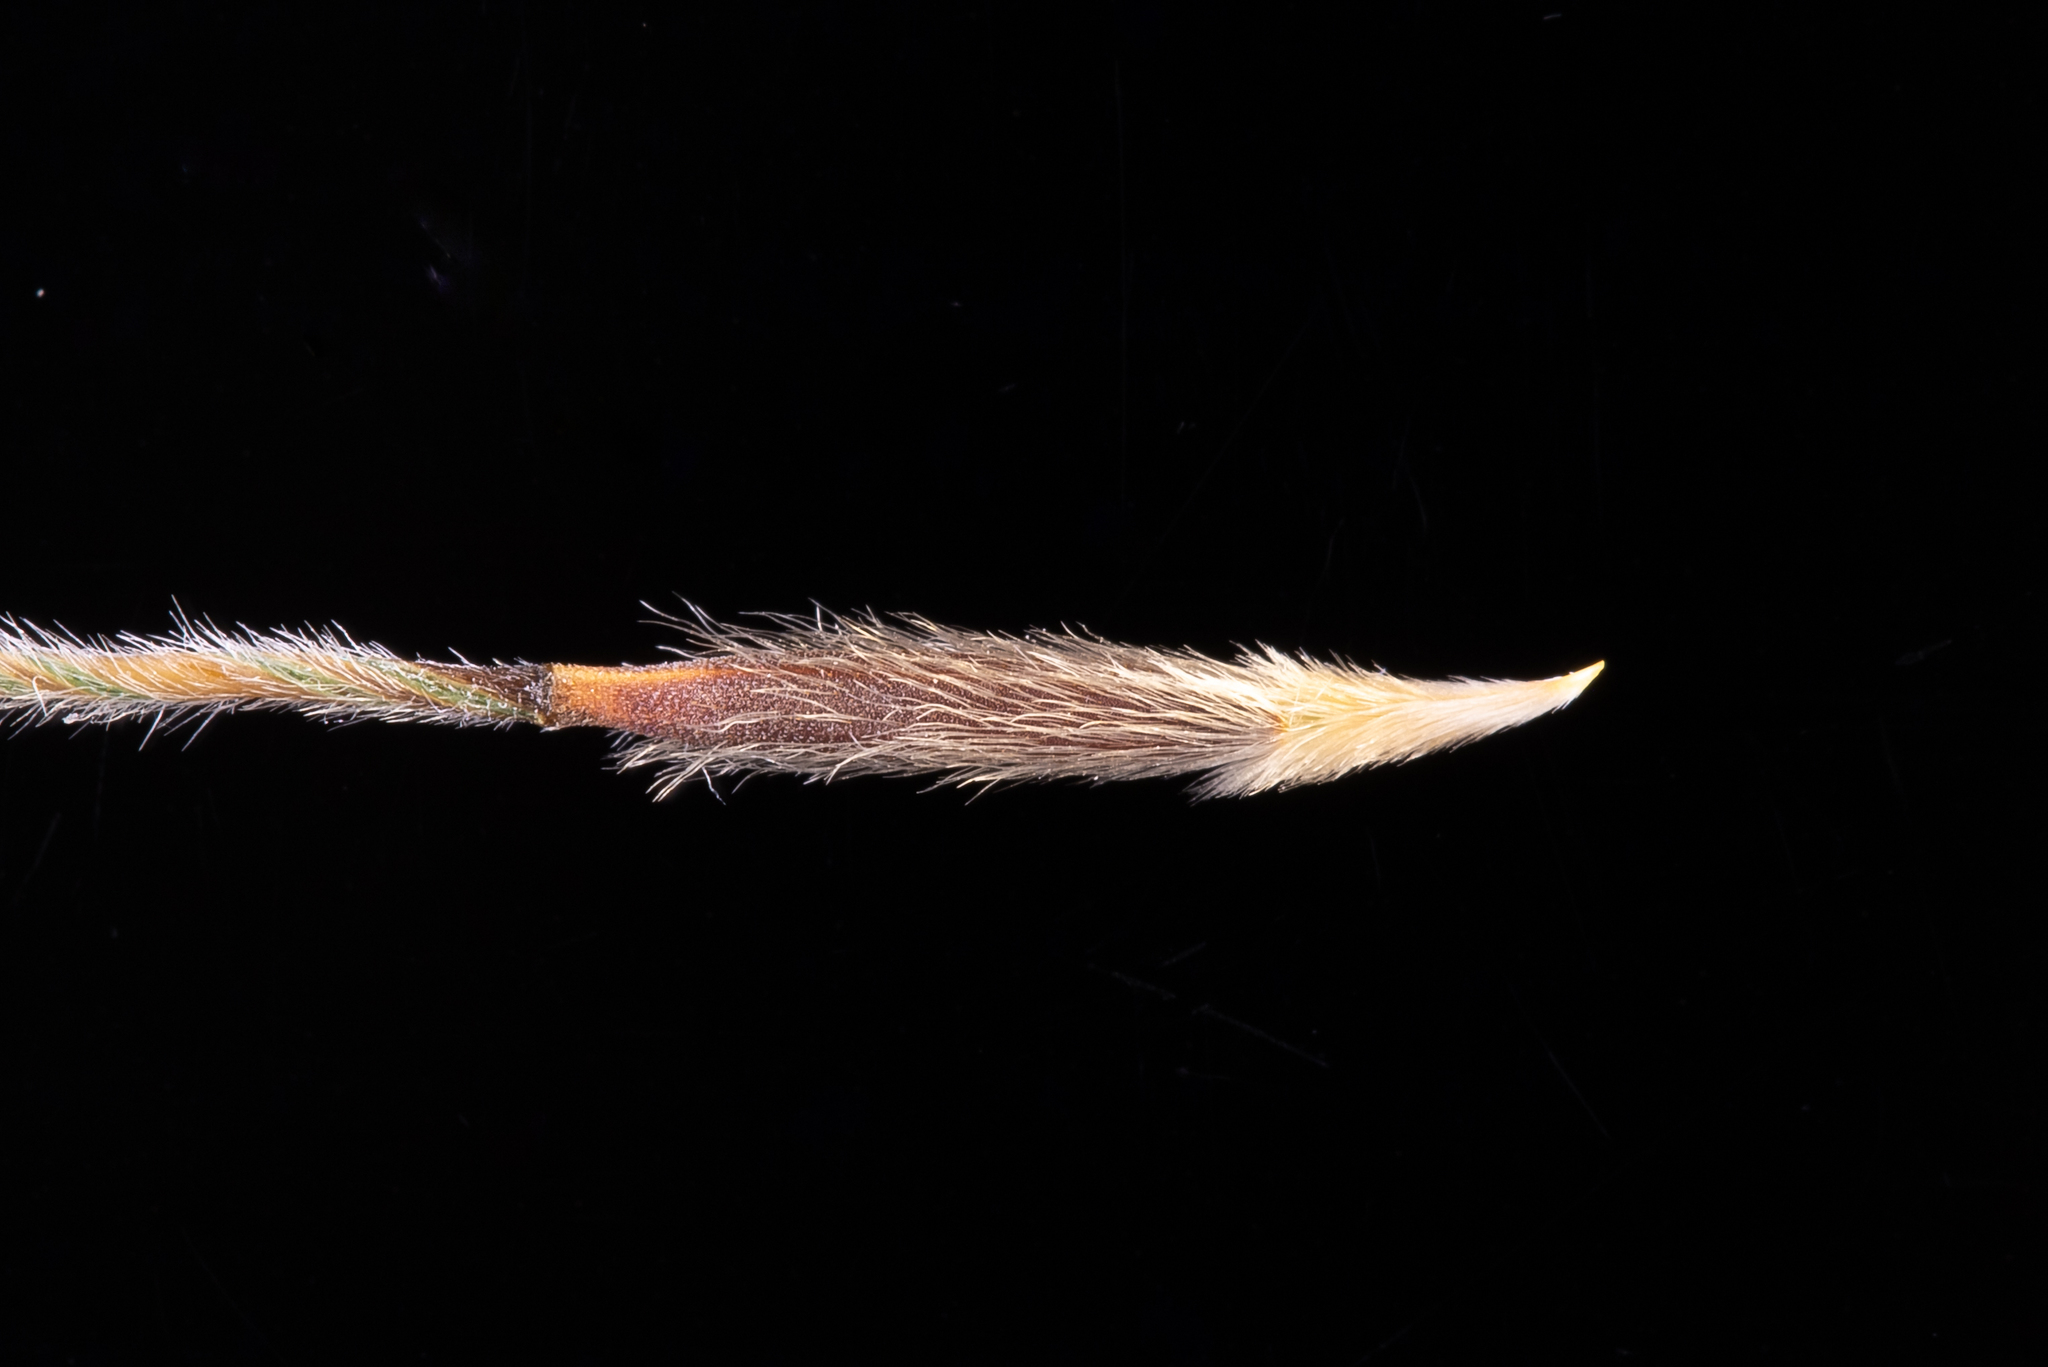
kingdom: Plantae
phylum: Tracheophyta
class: Liliopsida
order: Poales
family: Poaceae
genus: Austrostipa
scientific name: Austrostipa semibarbata
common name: Fibrous spear grass
